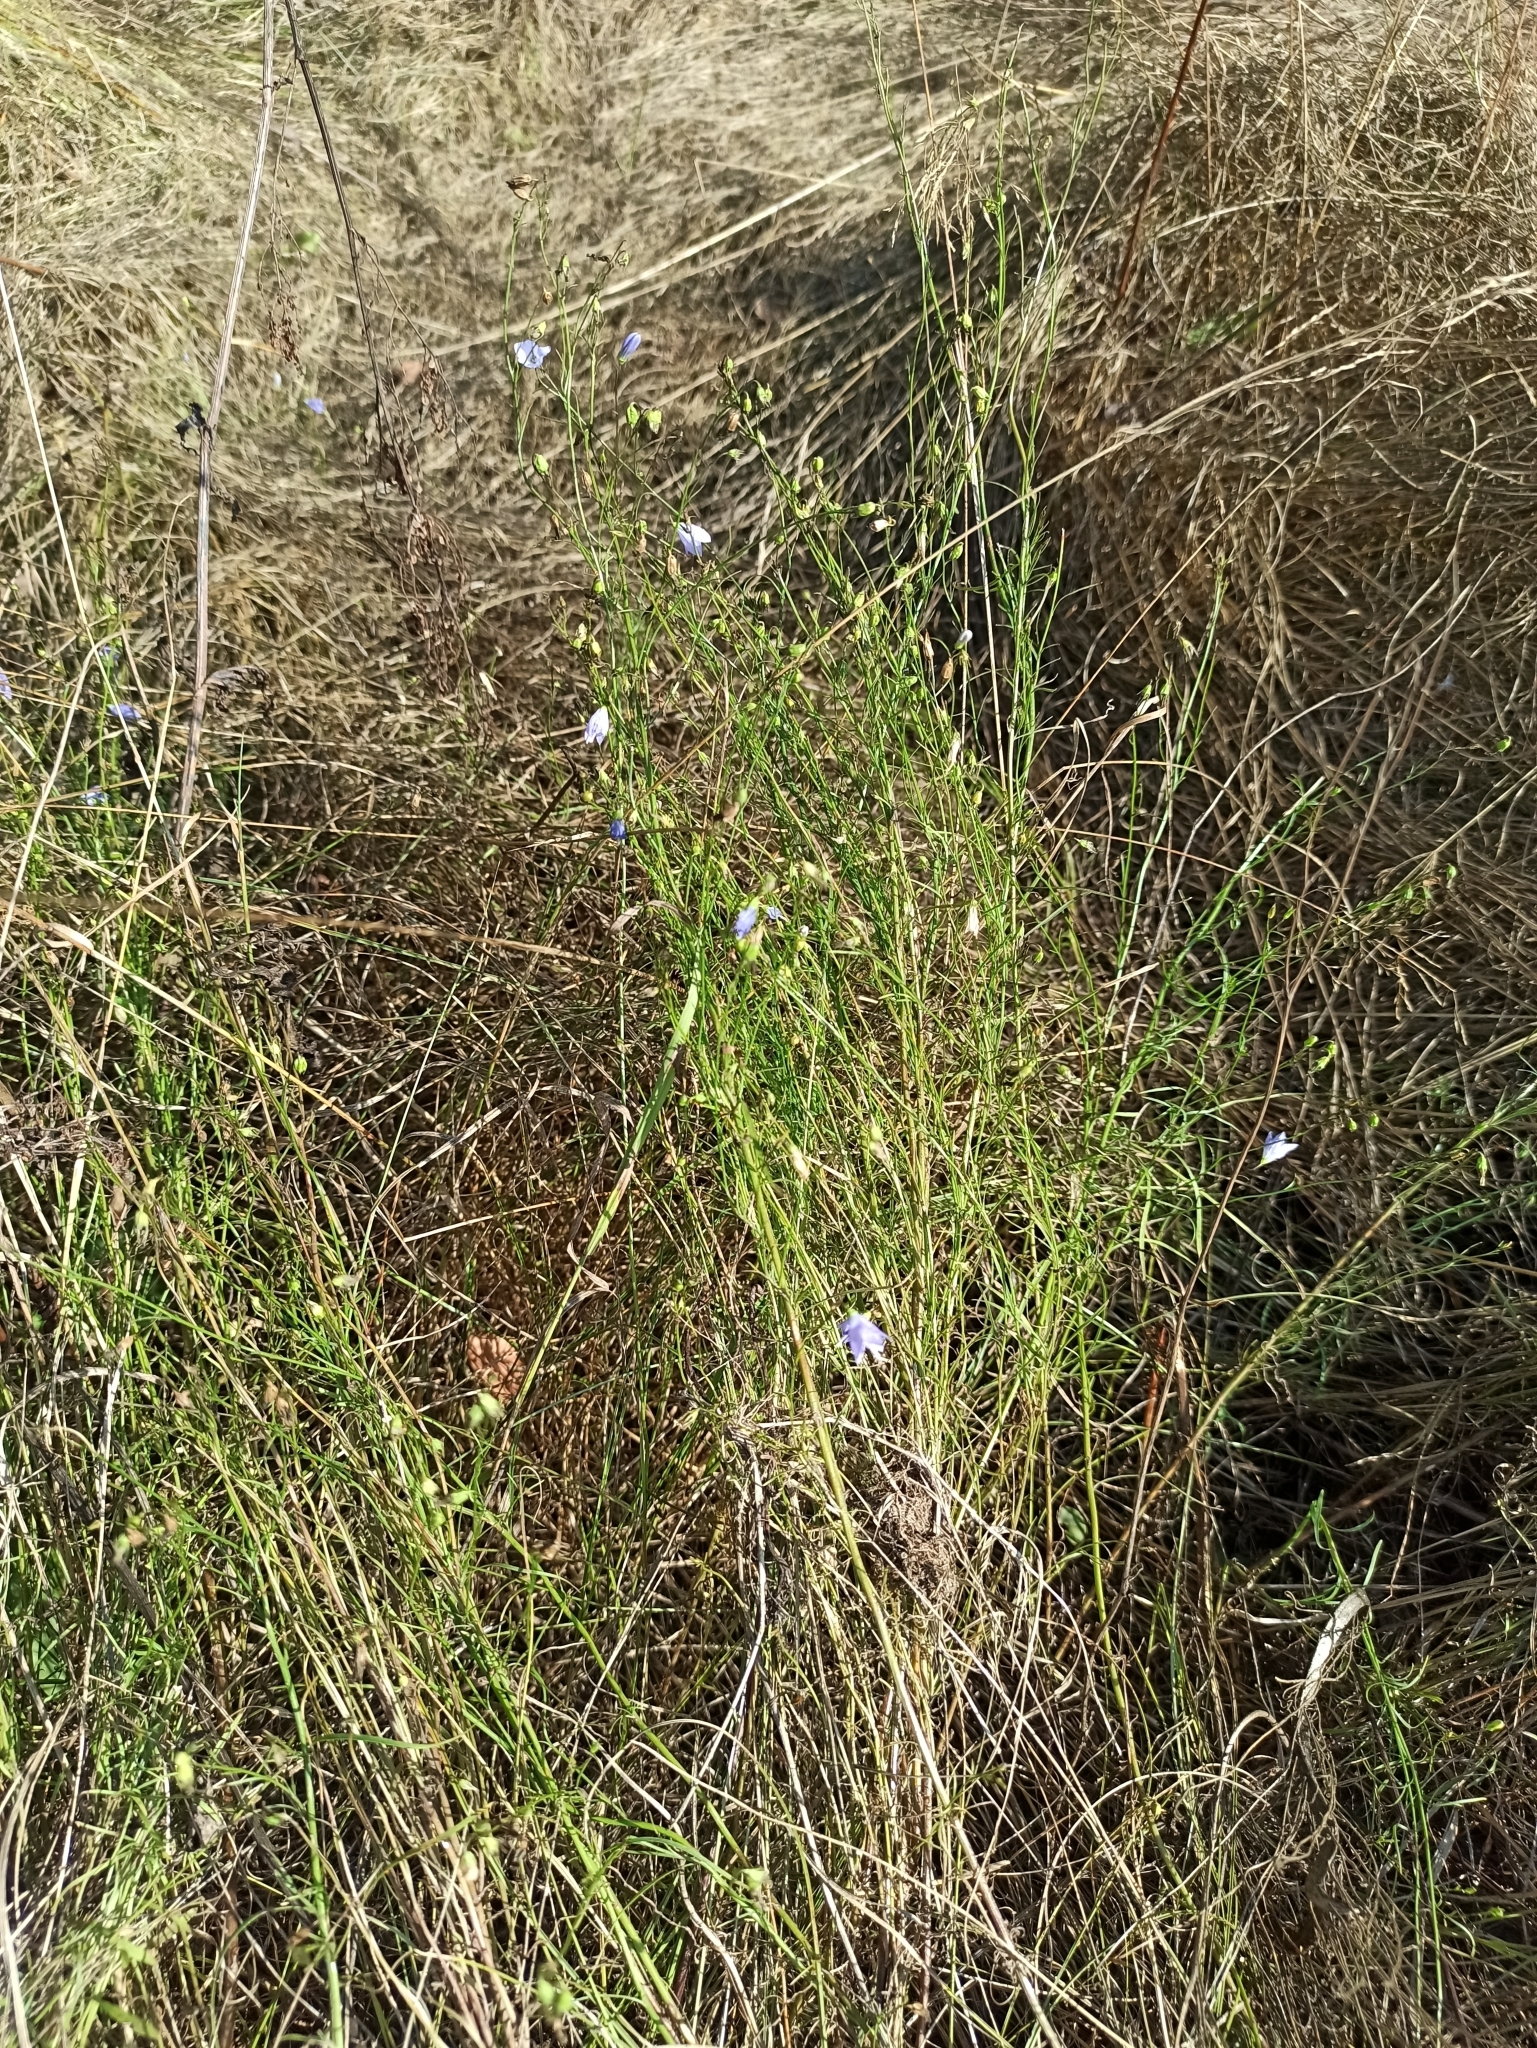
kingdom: Plantae
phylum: Tracheophyta
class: Magnoliopsida
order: Asterales
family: Campanulaceae
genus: Campanula
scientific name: Campanula rotundifolia
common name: Harebell
